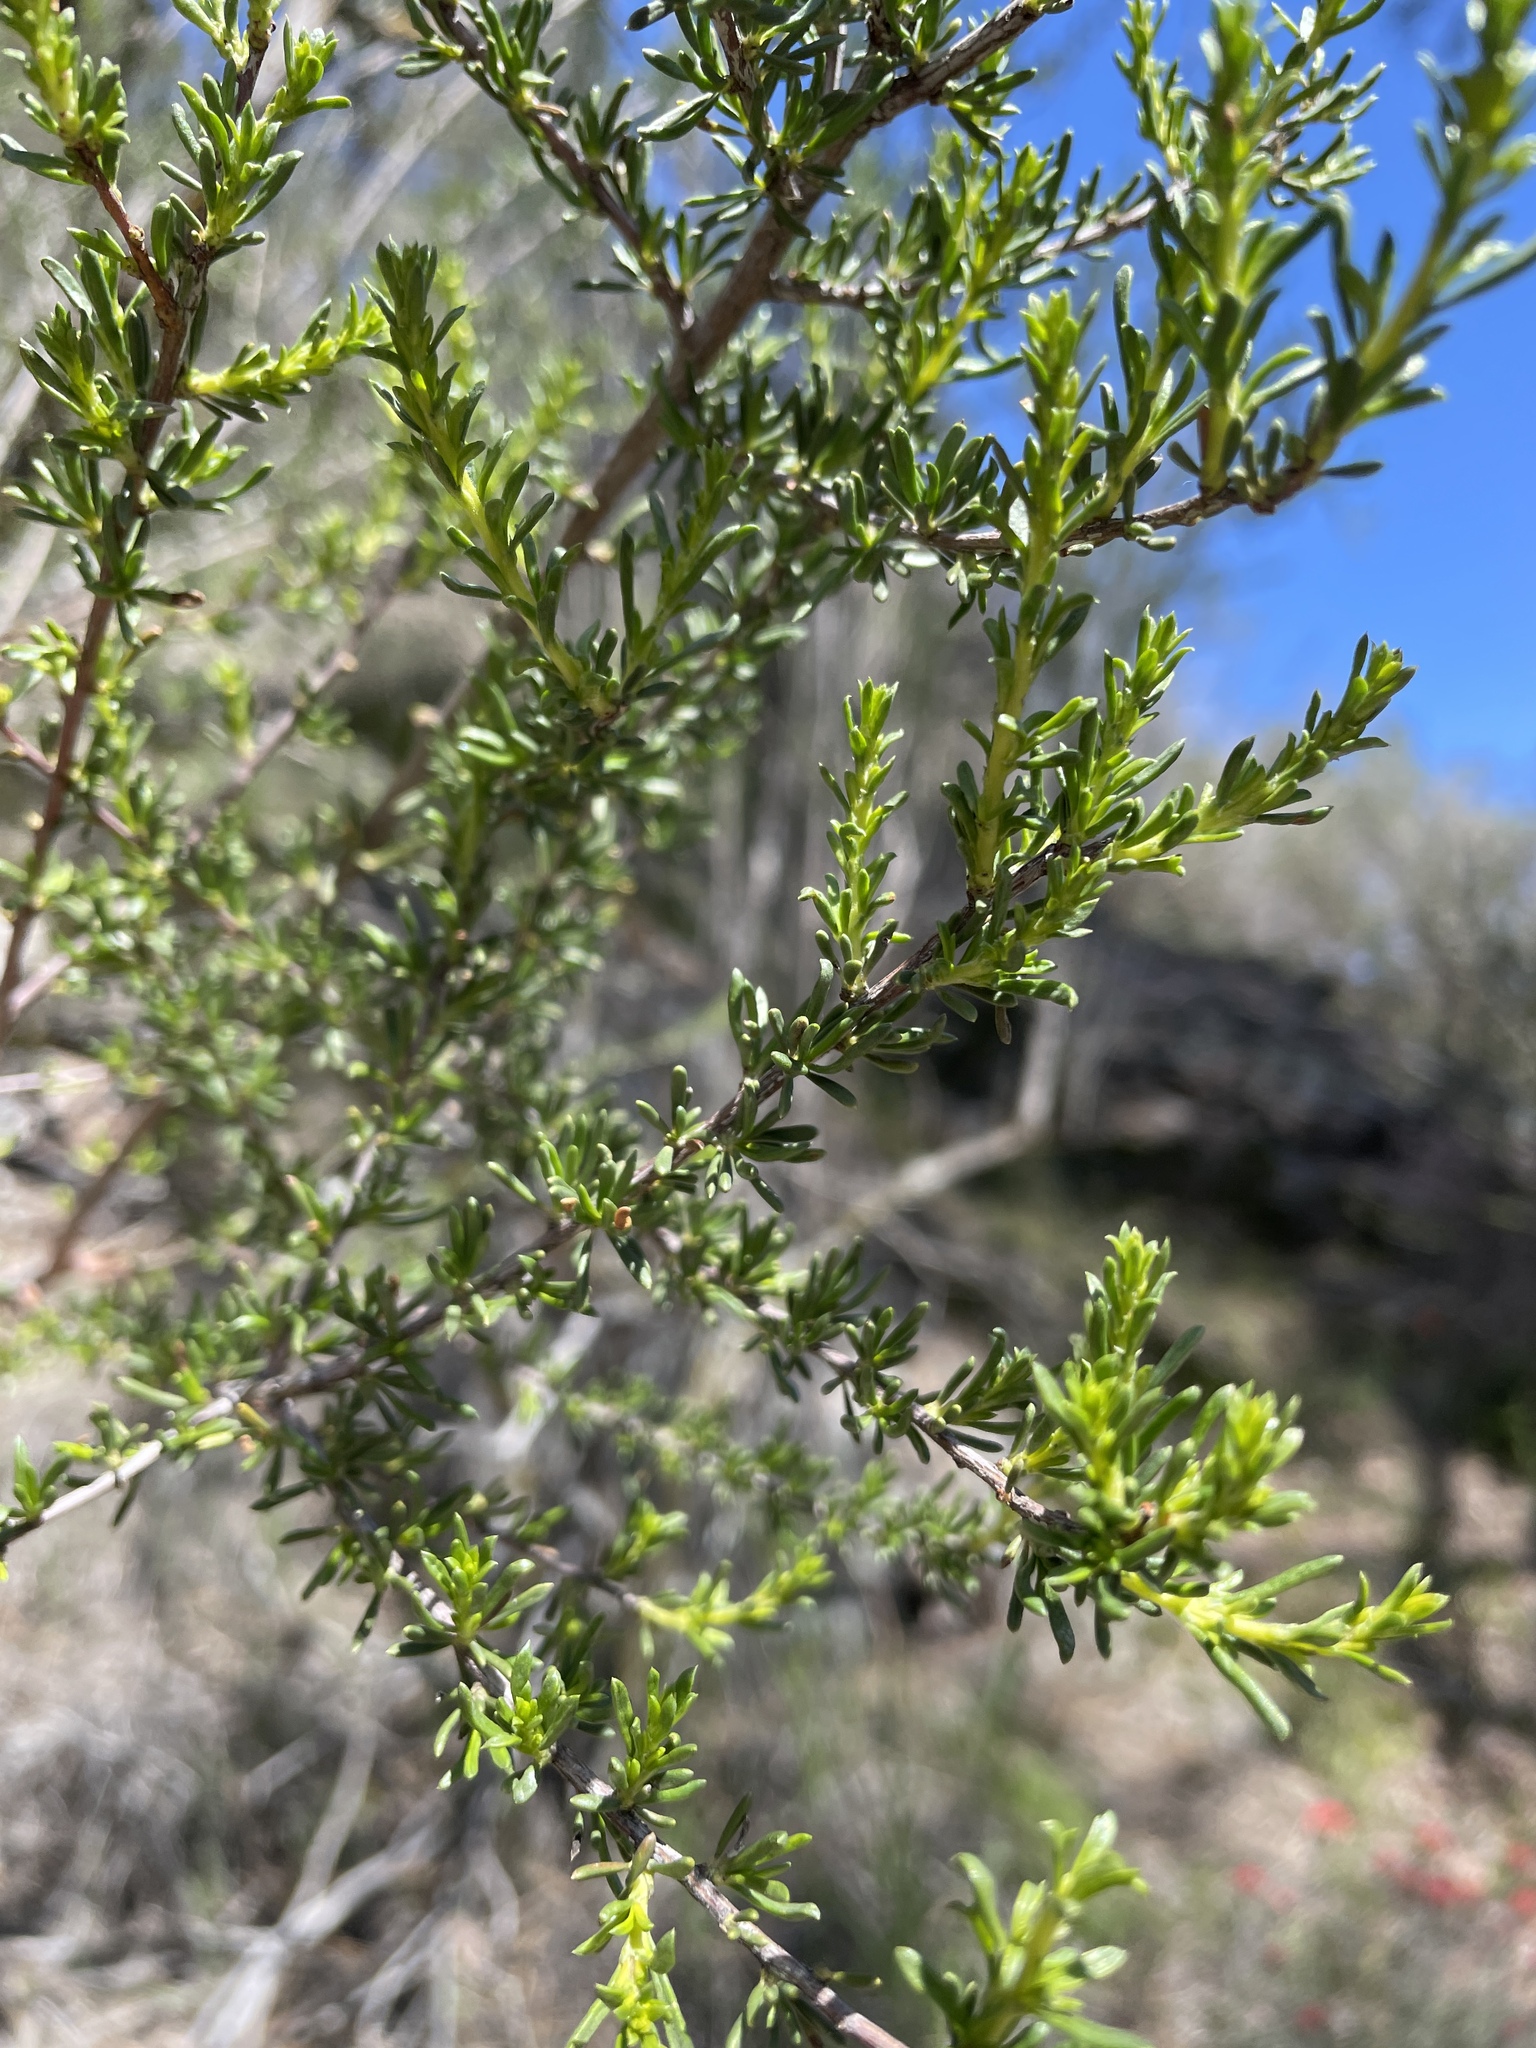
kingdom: Plantae
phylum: Tracheophyta
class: Magnoliopsida
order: Rosales
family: Rosaceae
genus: Adenostoma
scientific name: Adenostoma fasciculatum
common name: Chamise
